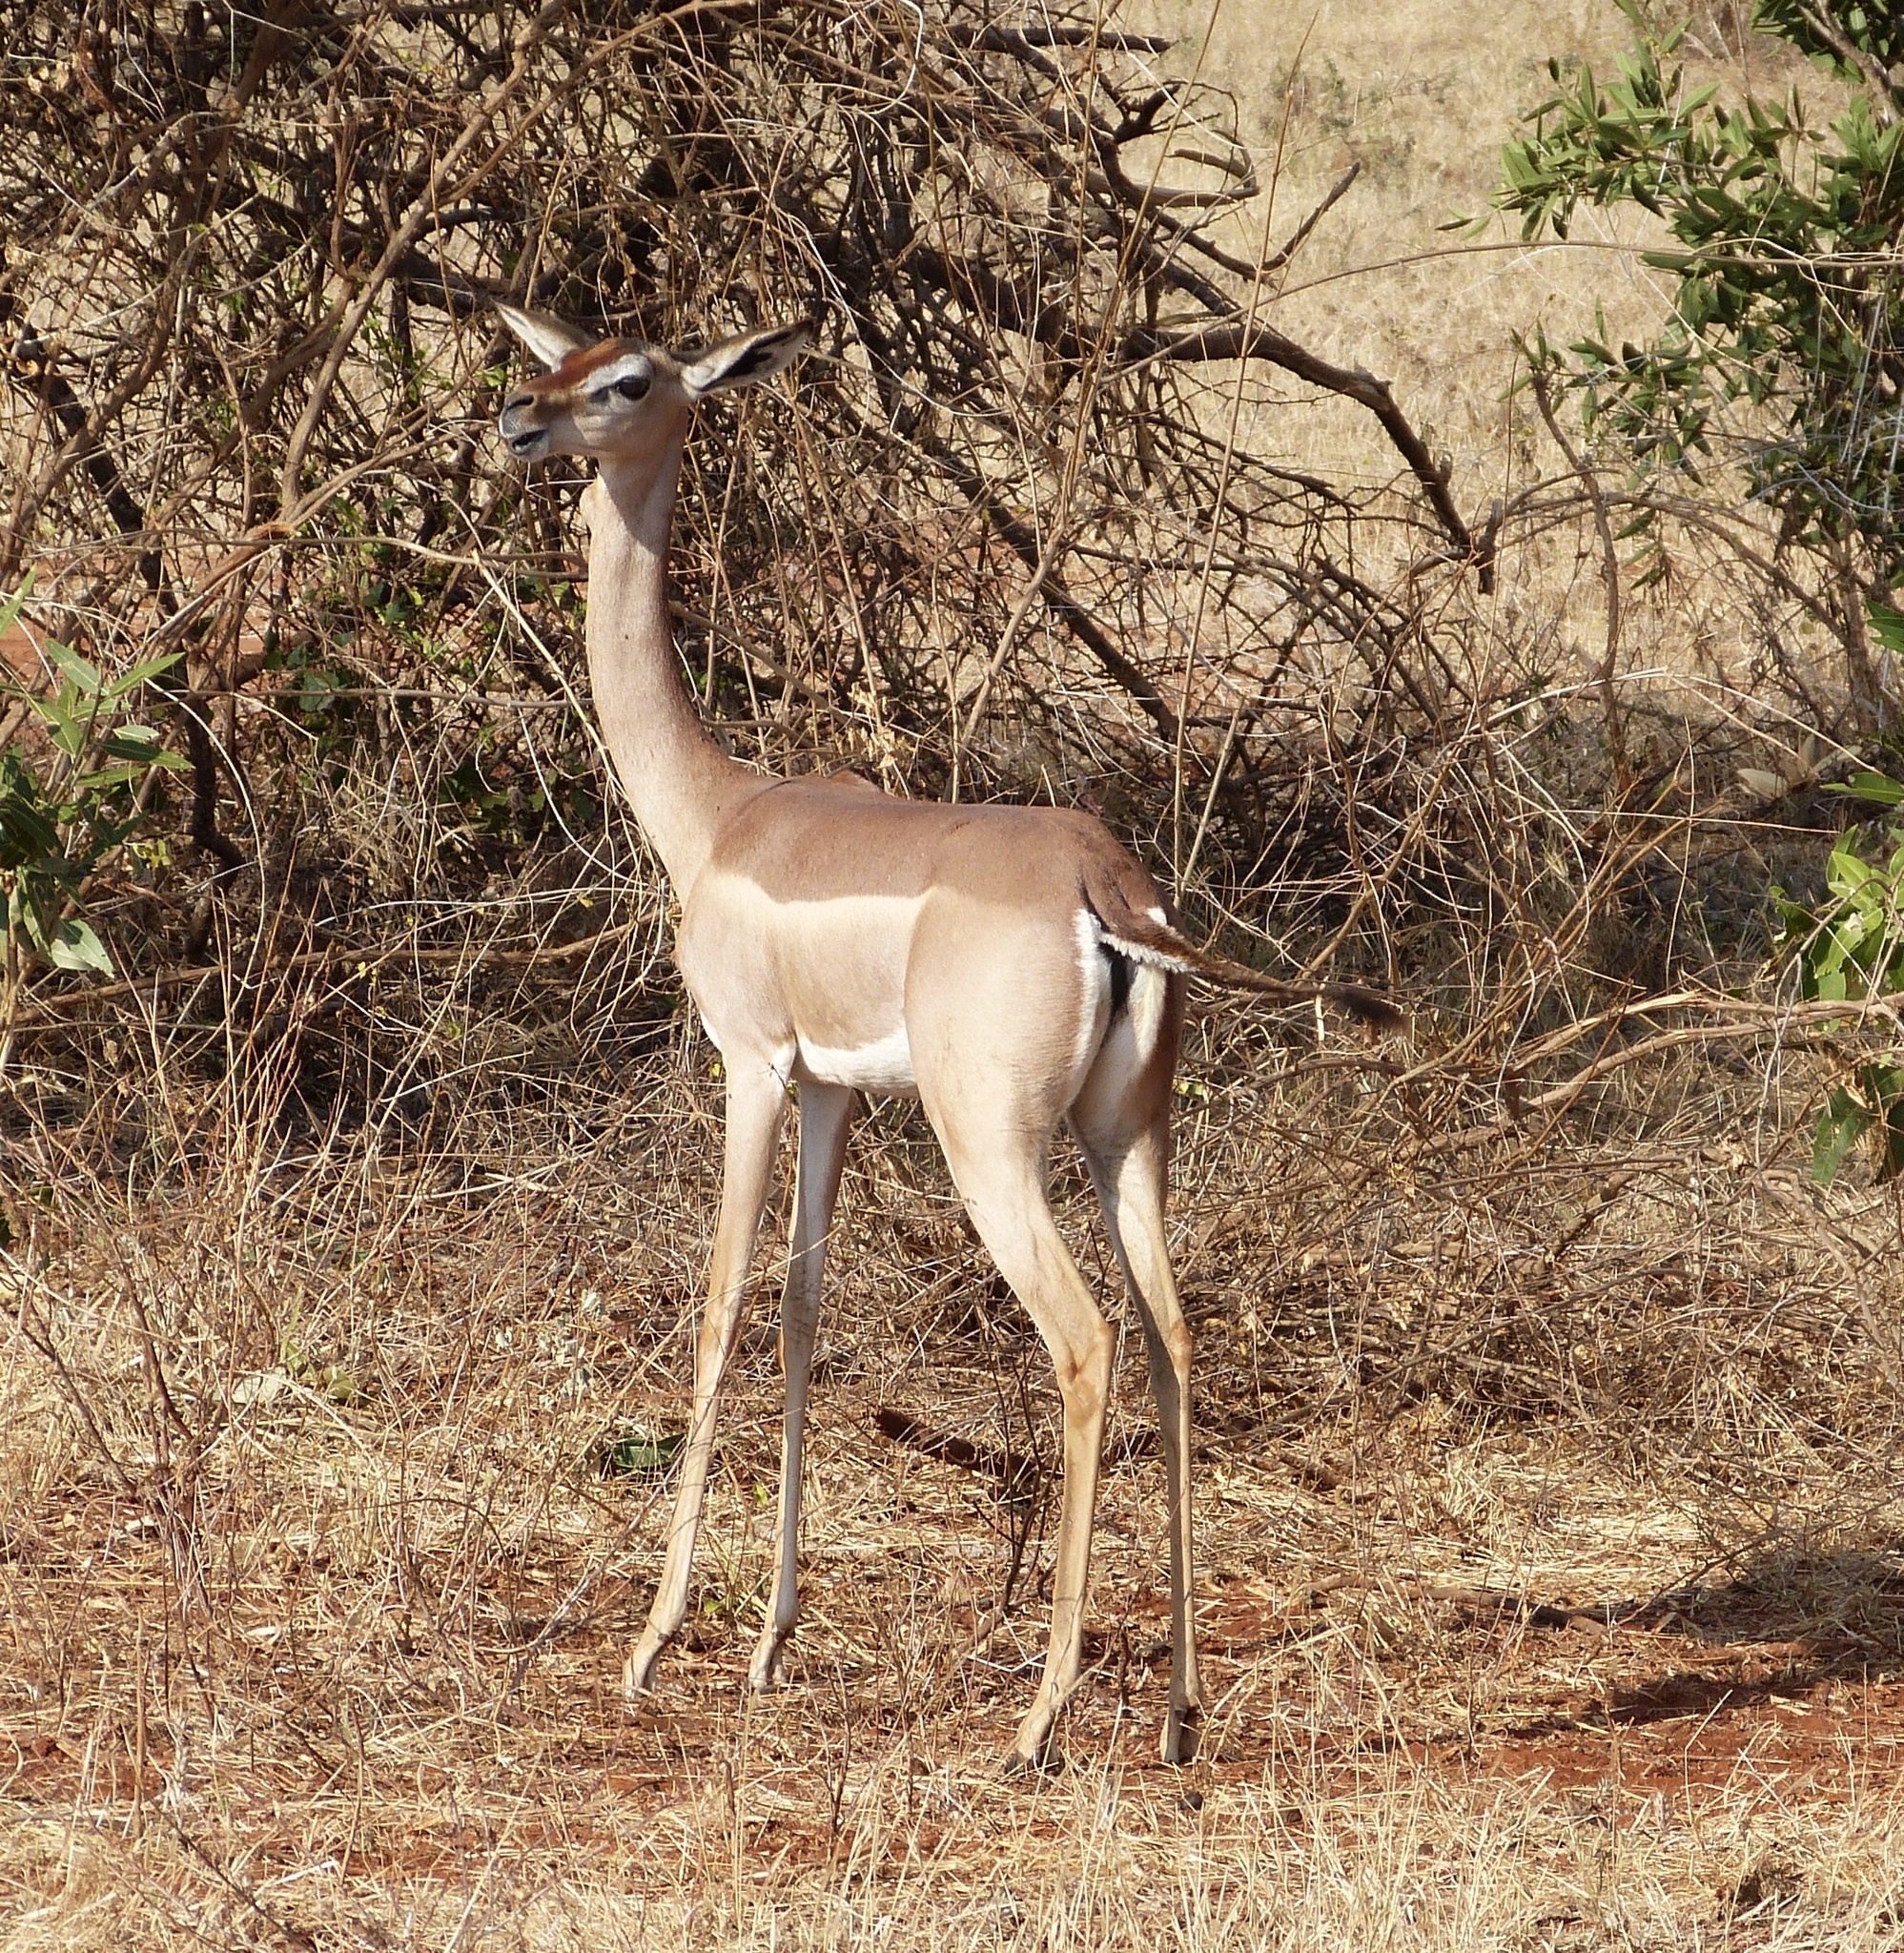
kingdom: Animalia
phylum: Chordata
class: Mammalia
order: Artiodactyla
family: Bovidae
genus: Litocranius
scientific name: Litocranius walleri
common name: Gerenuk
